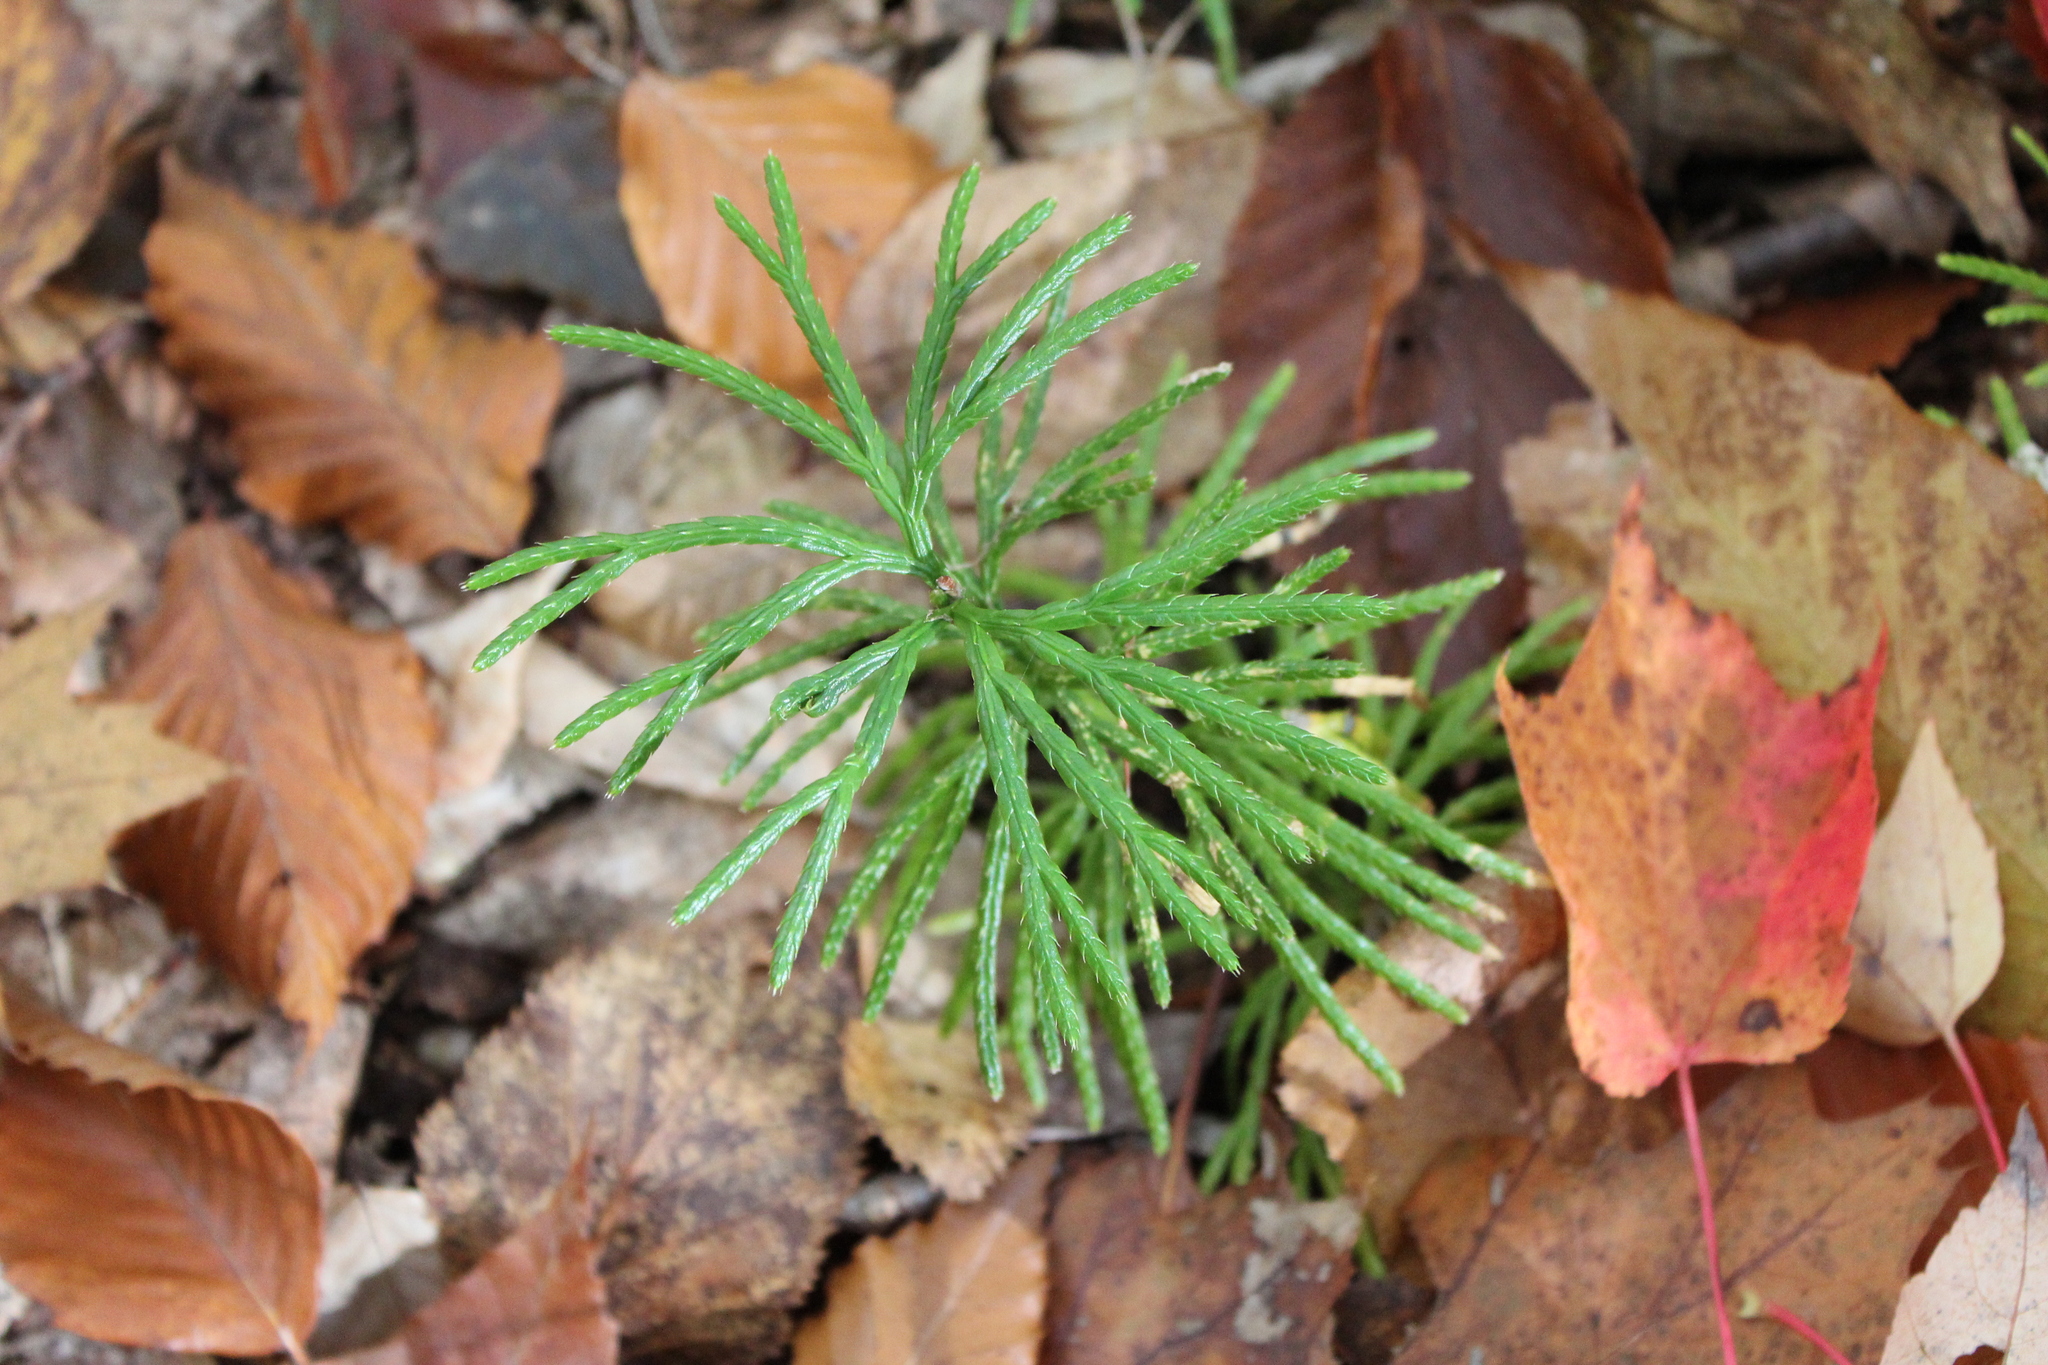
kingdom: Plantae
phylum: Tracheophyta
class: Lycopodiopsida
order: Lycopodiales
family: Lycopodiaceae
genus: Diphasiastrum
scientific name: Diphasiastrum digitatum
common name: Southern running-pine
